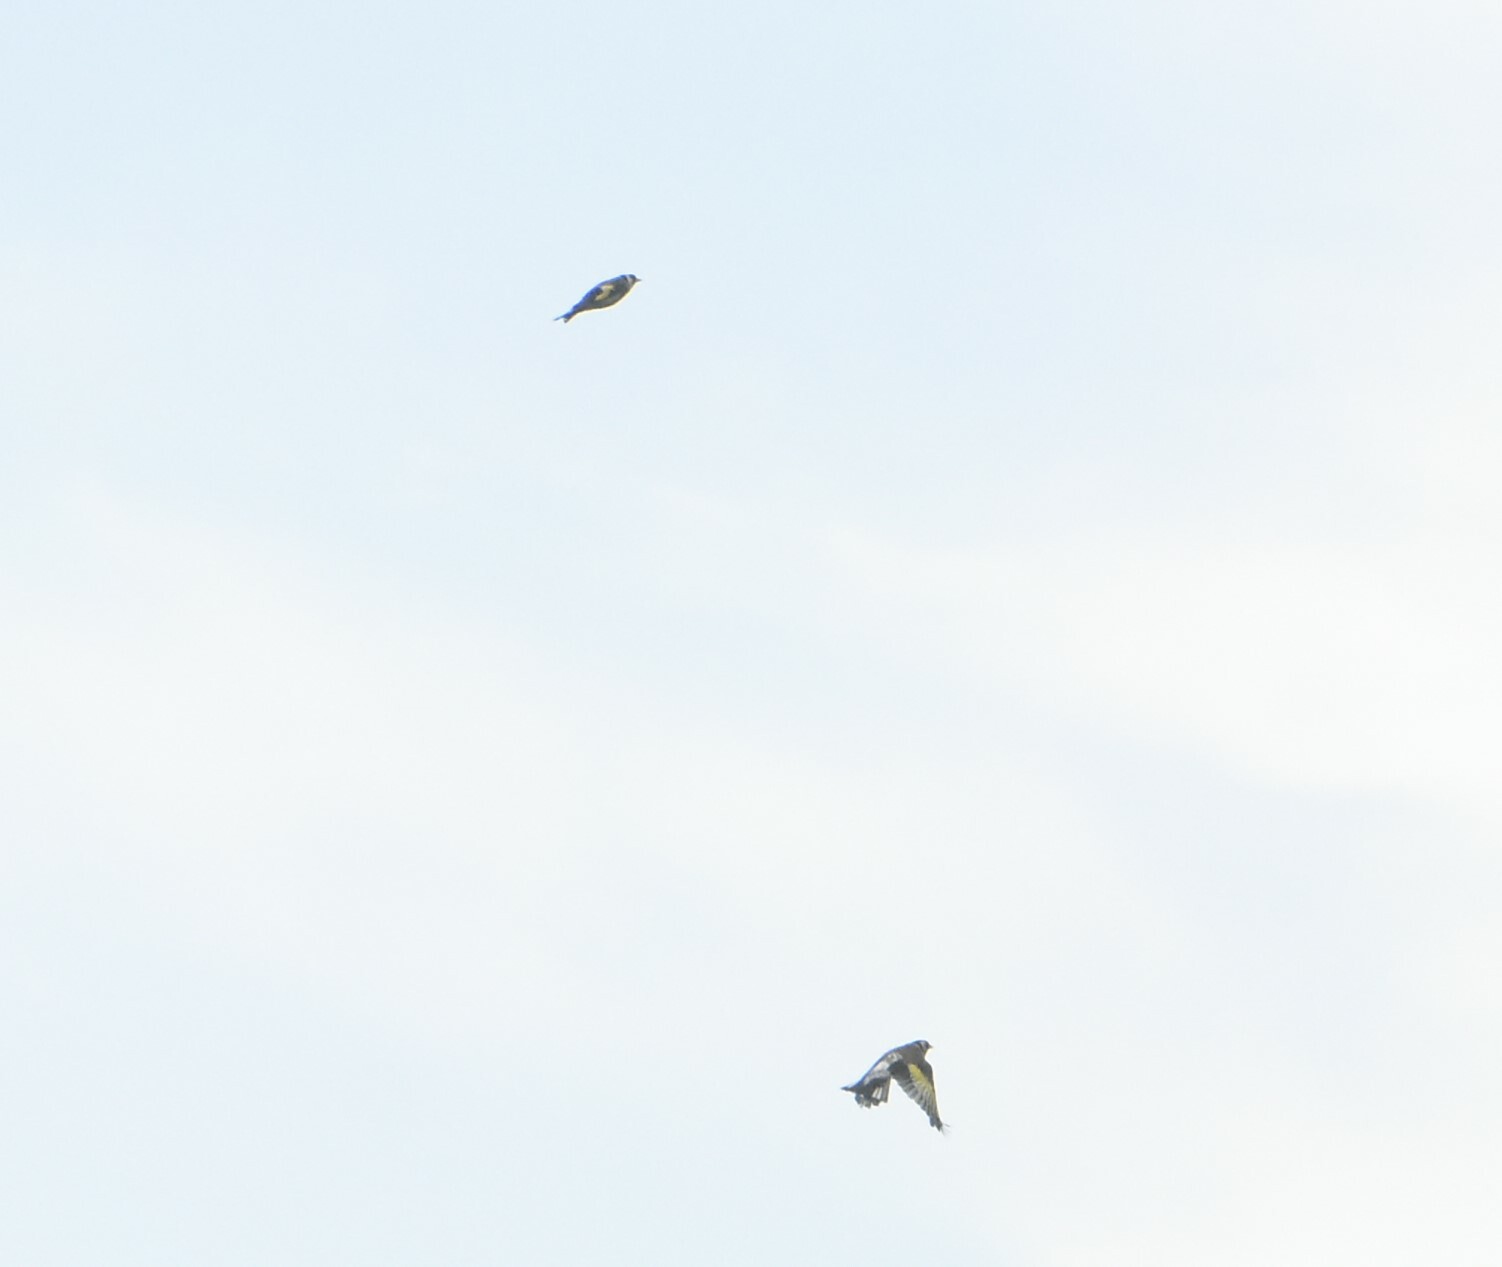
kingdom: Animalia
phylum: Chordata
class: Aves
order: Passeriformes
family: Fringillidae
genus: Carduelis
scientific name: Carduelis carduelis
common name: European goldfinch
